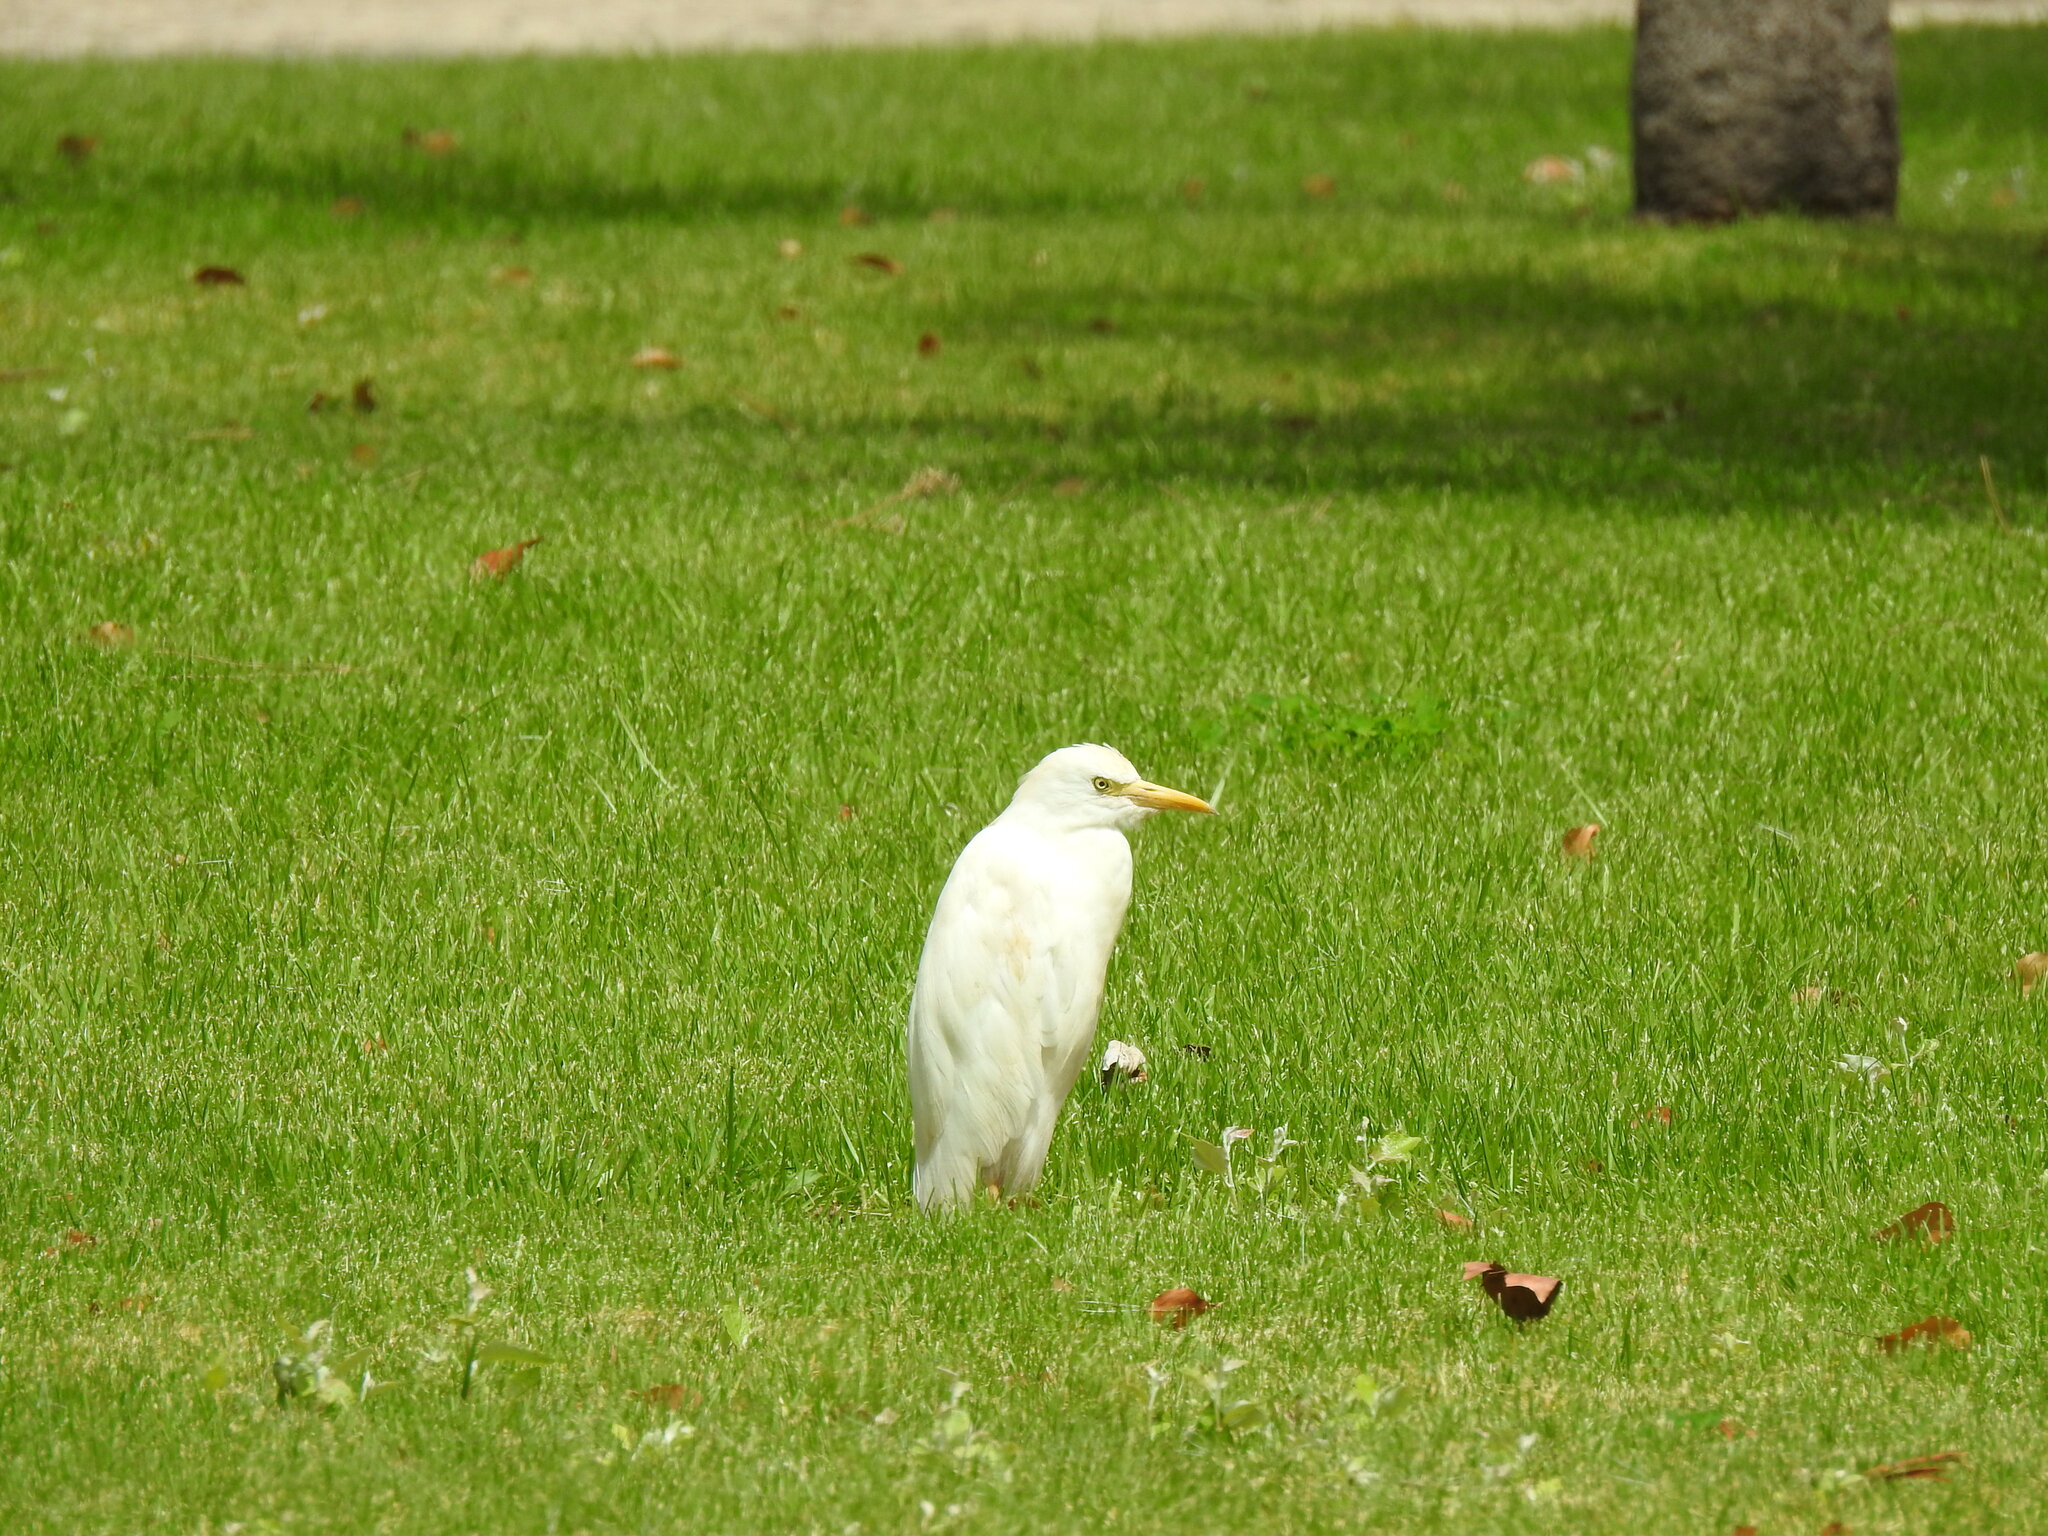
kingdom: Animalia
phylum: Chordata
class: Aves
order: Pelecaniformes
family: Ardeidae
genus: Bubulcus
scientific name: Bubulcus ibis
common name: Cattle egret
